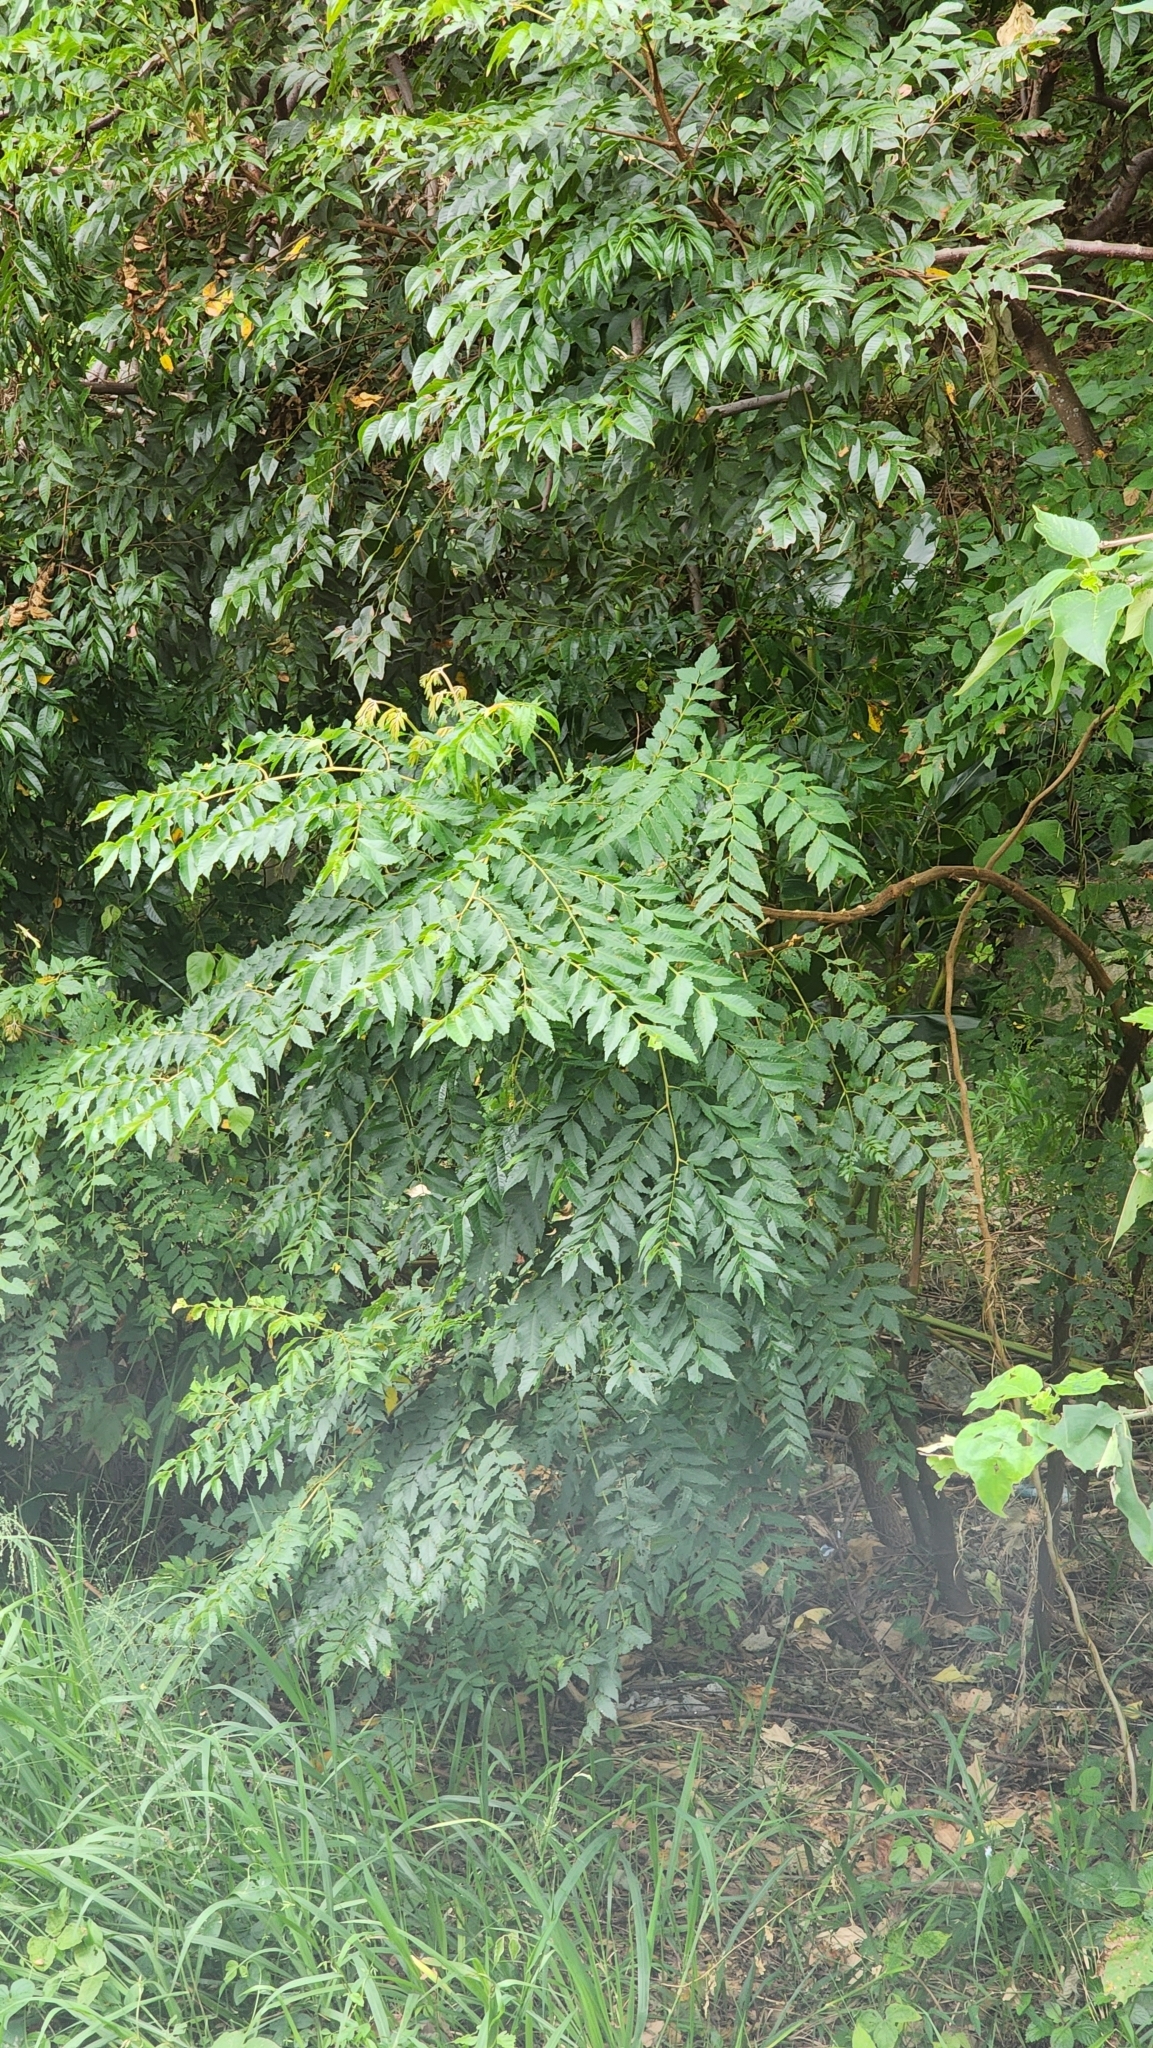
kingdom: Plantae
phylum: Tracheophyta
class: Magnoliopsida
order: Sapindales
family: Sapindaceae
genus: Koelreuteria
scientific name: Koelreuteria elegans
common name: Chinese flame tree
